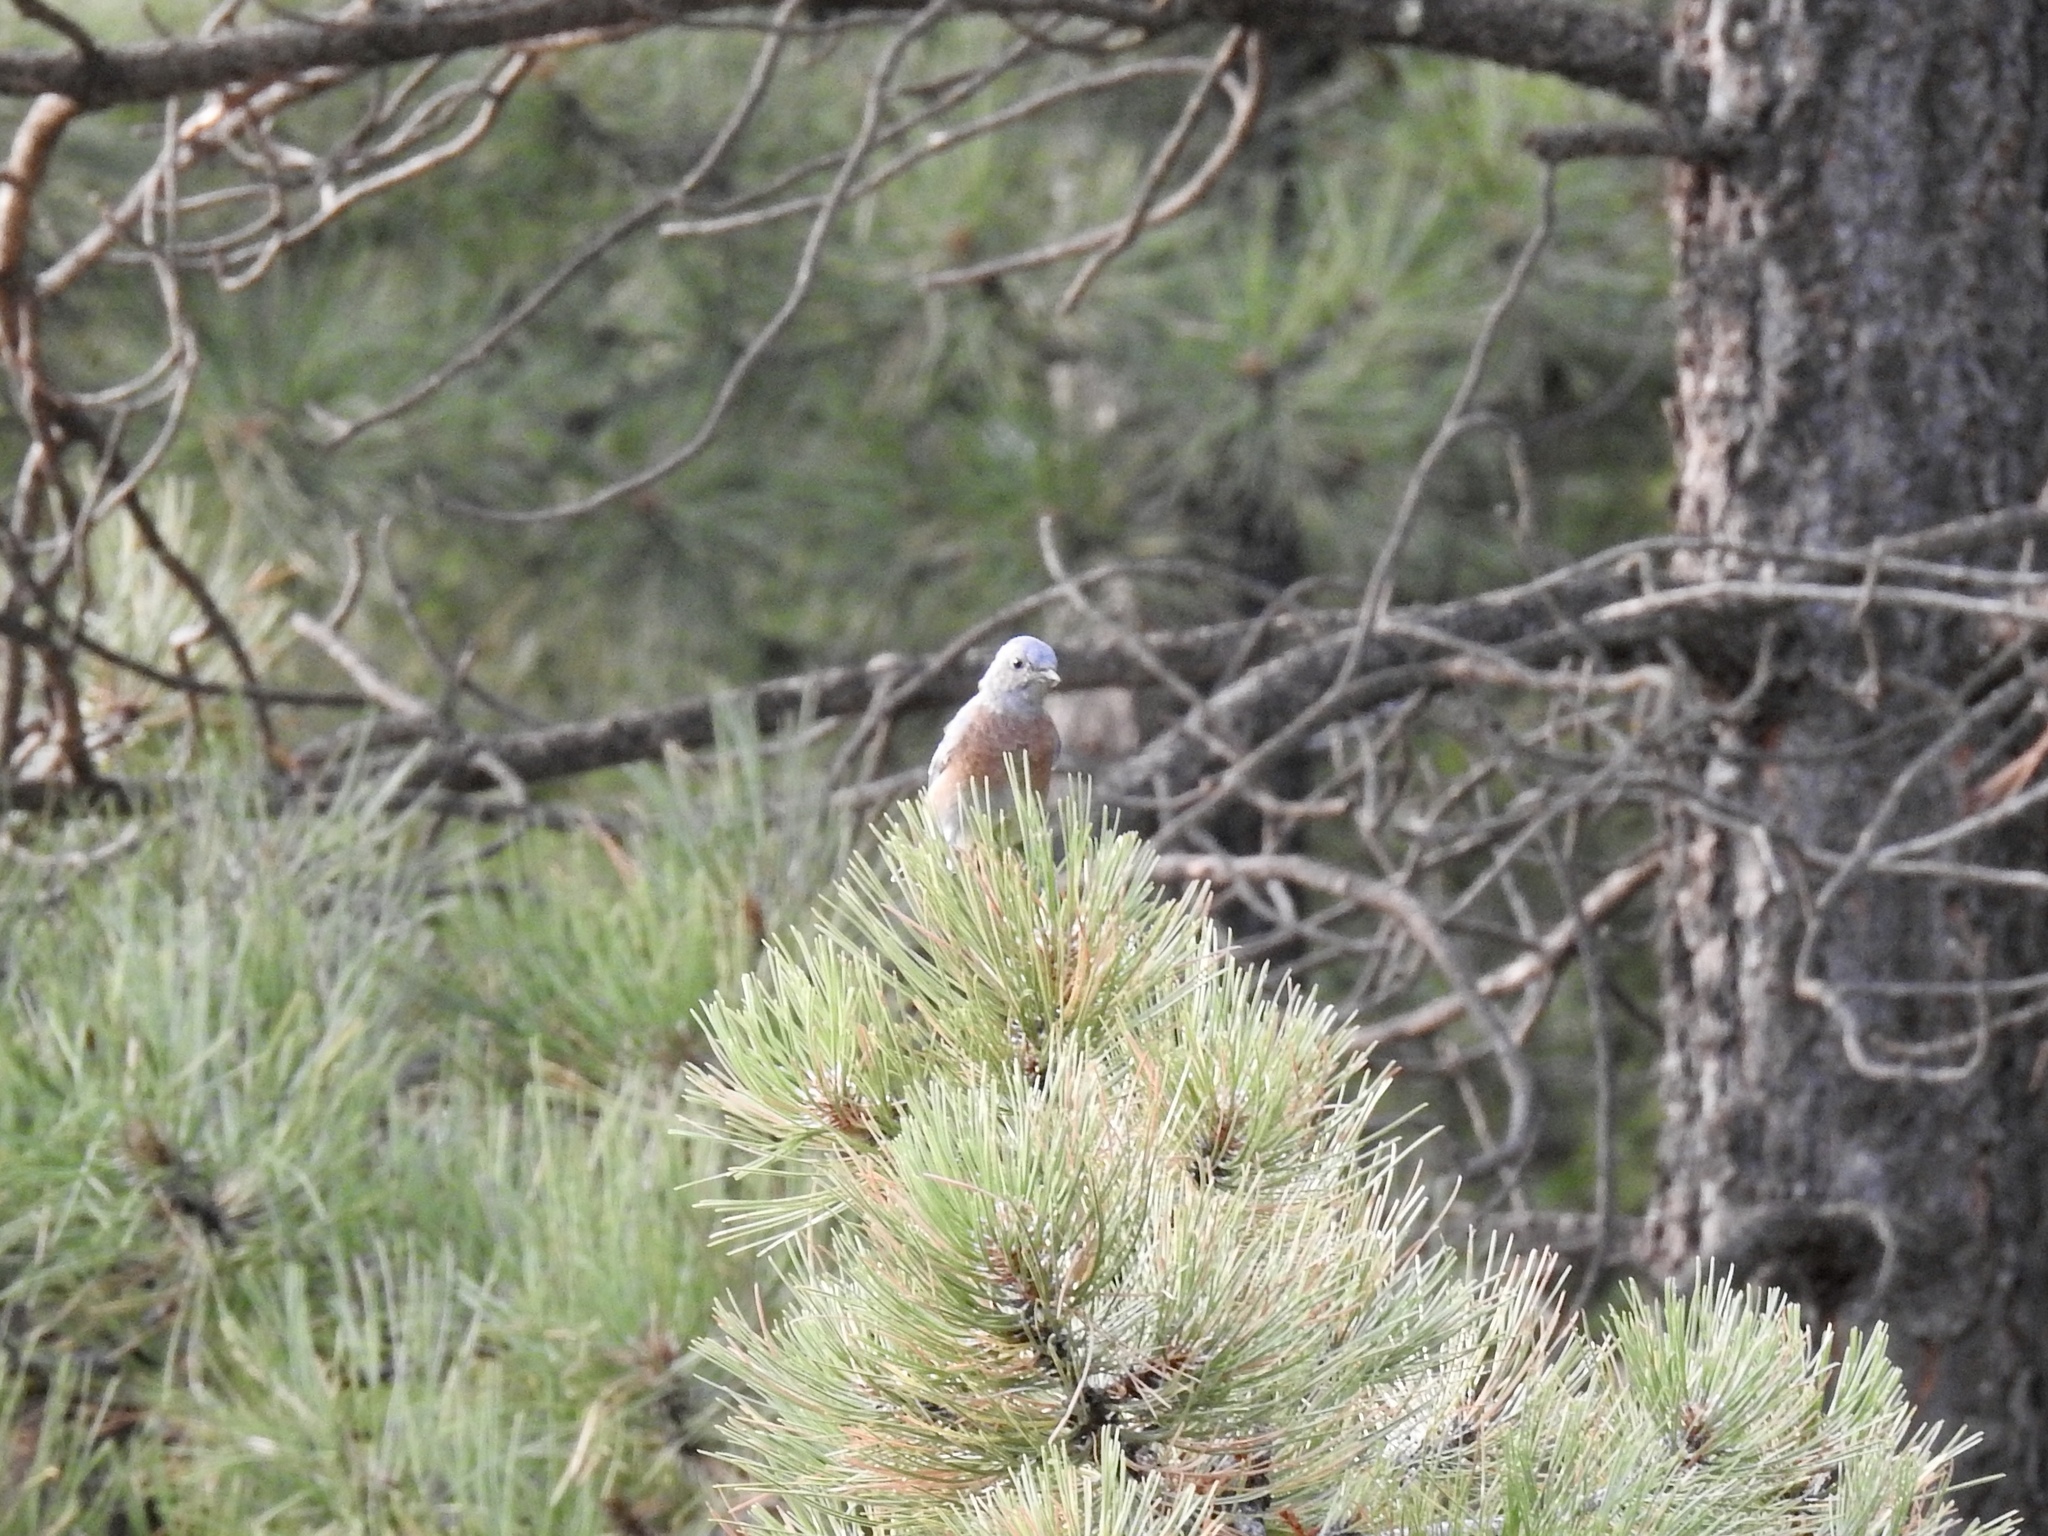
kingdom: Animalia
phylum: Chordata
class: Aves
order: Passeriformes
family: Turdidae
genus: Sialia
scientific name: Sialia mexicana
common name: Western bluebird
